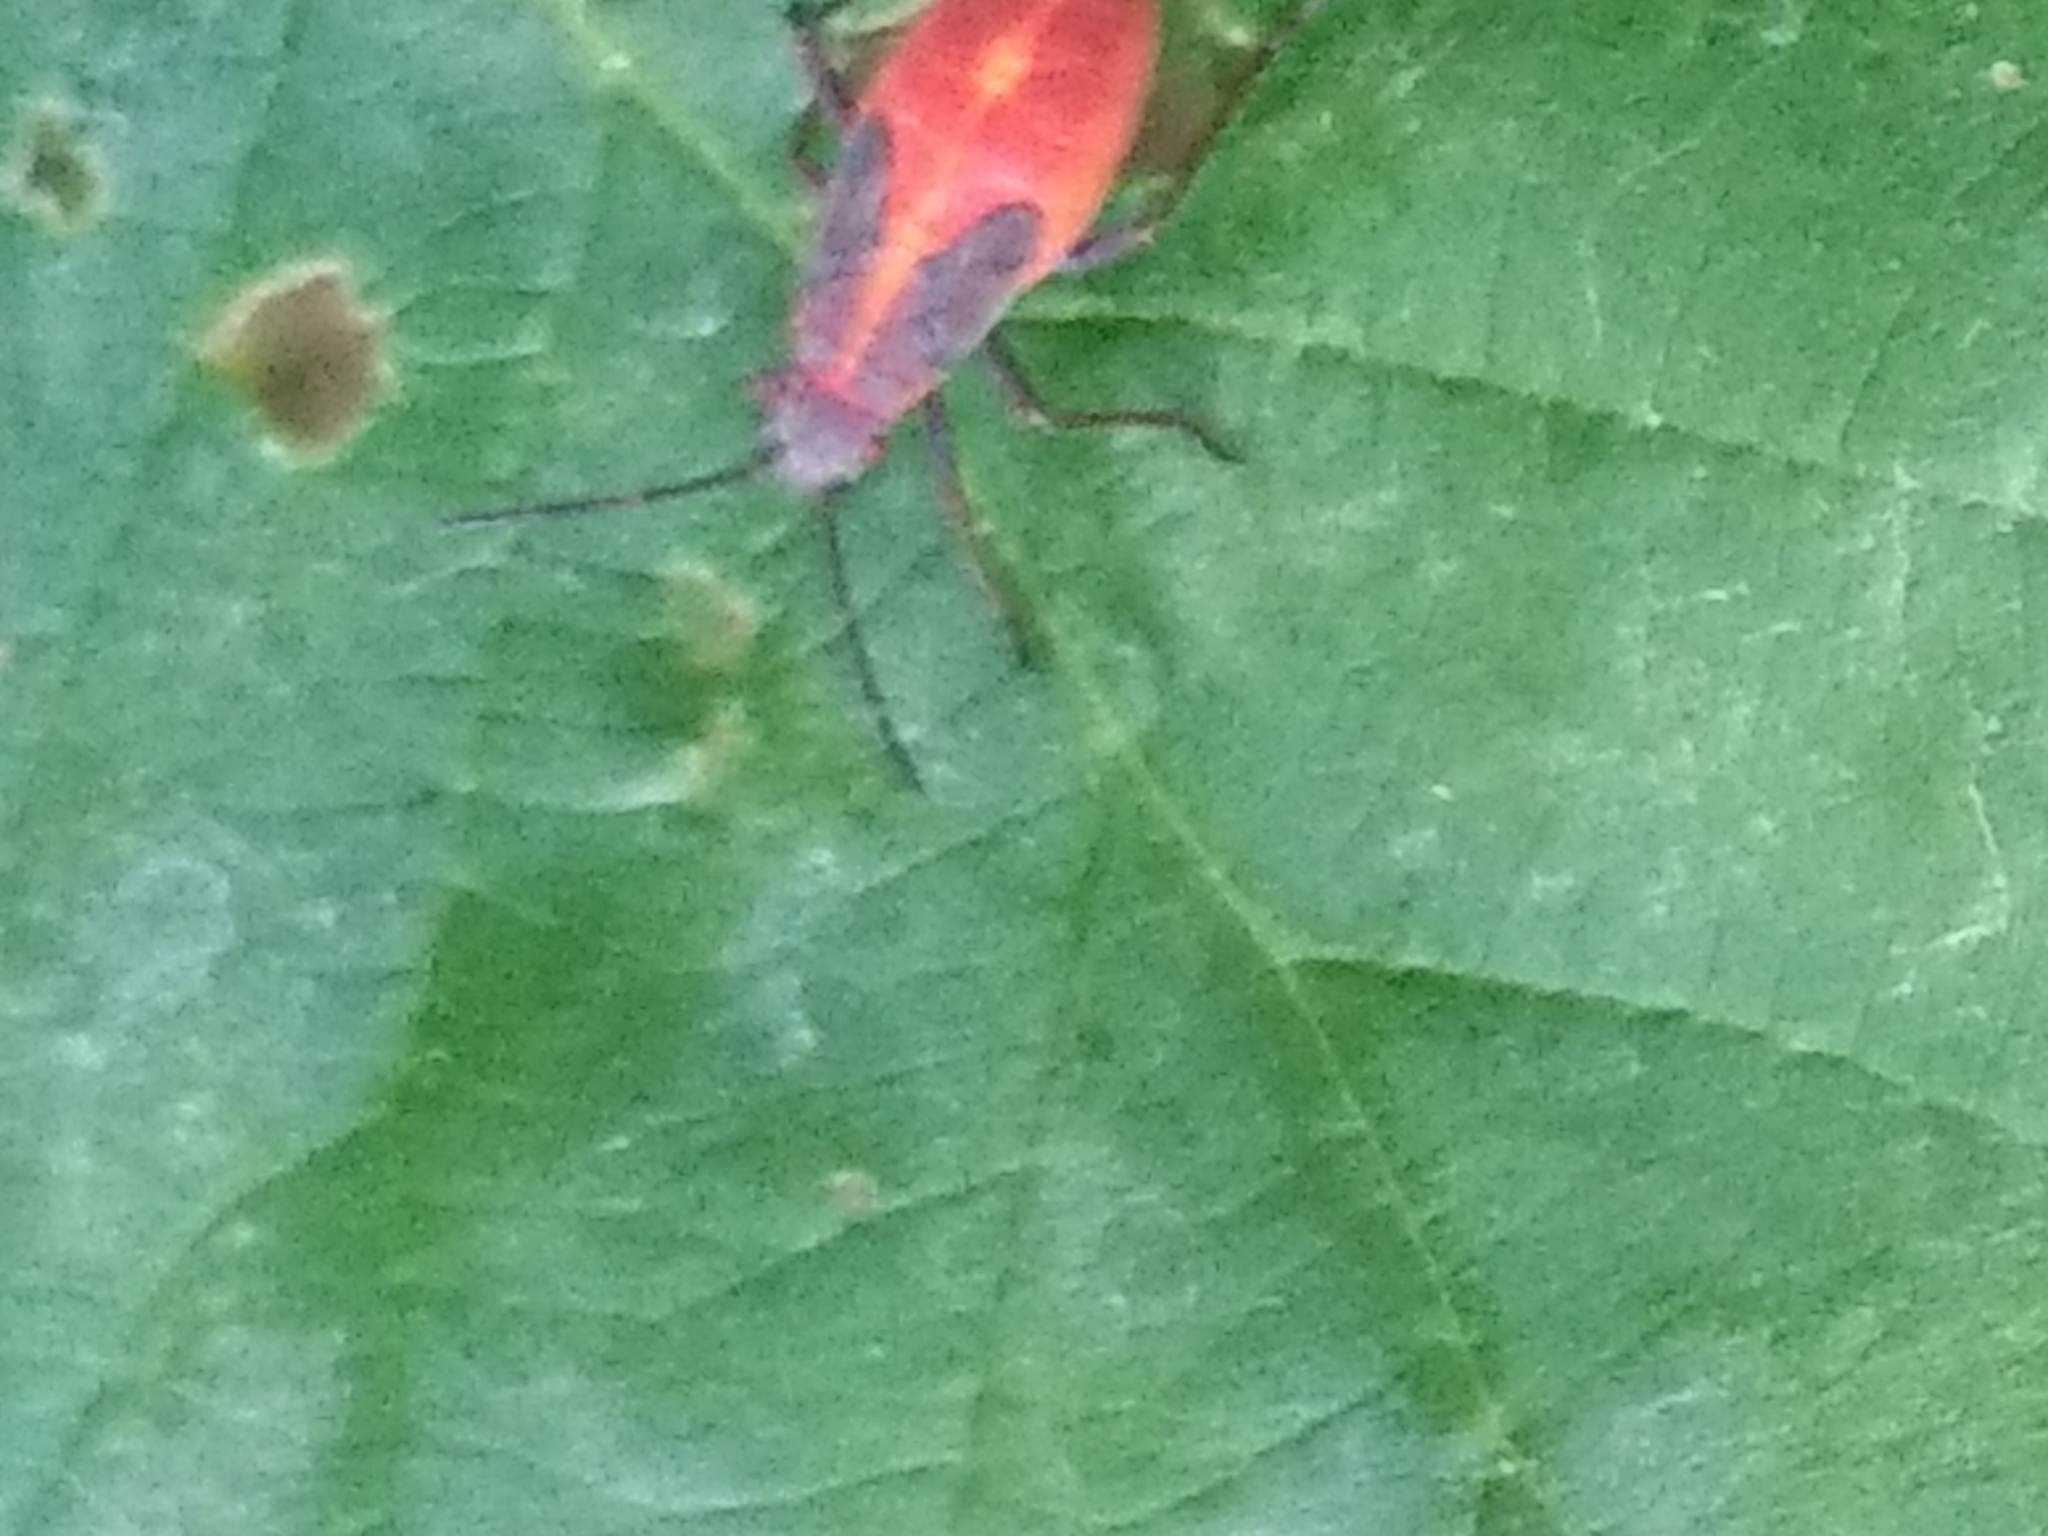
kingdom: Animalia
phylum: Arthropoda
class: Insecta
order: Hemiptera
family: Rhopalidae
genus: Boisea
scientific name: Boisea
